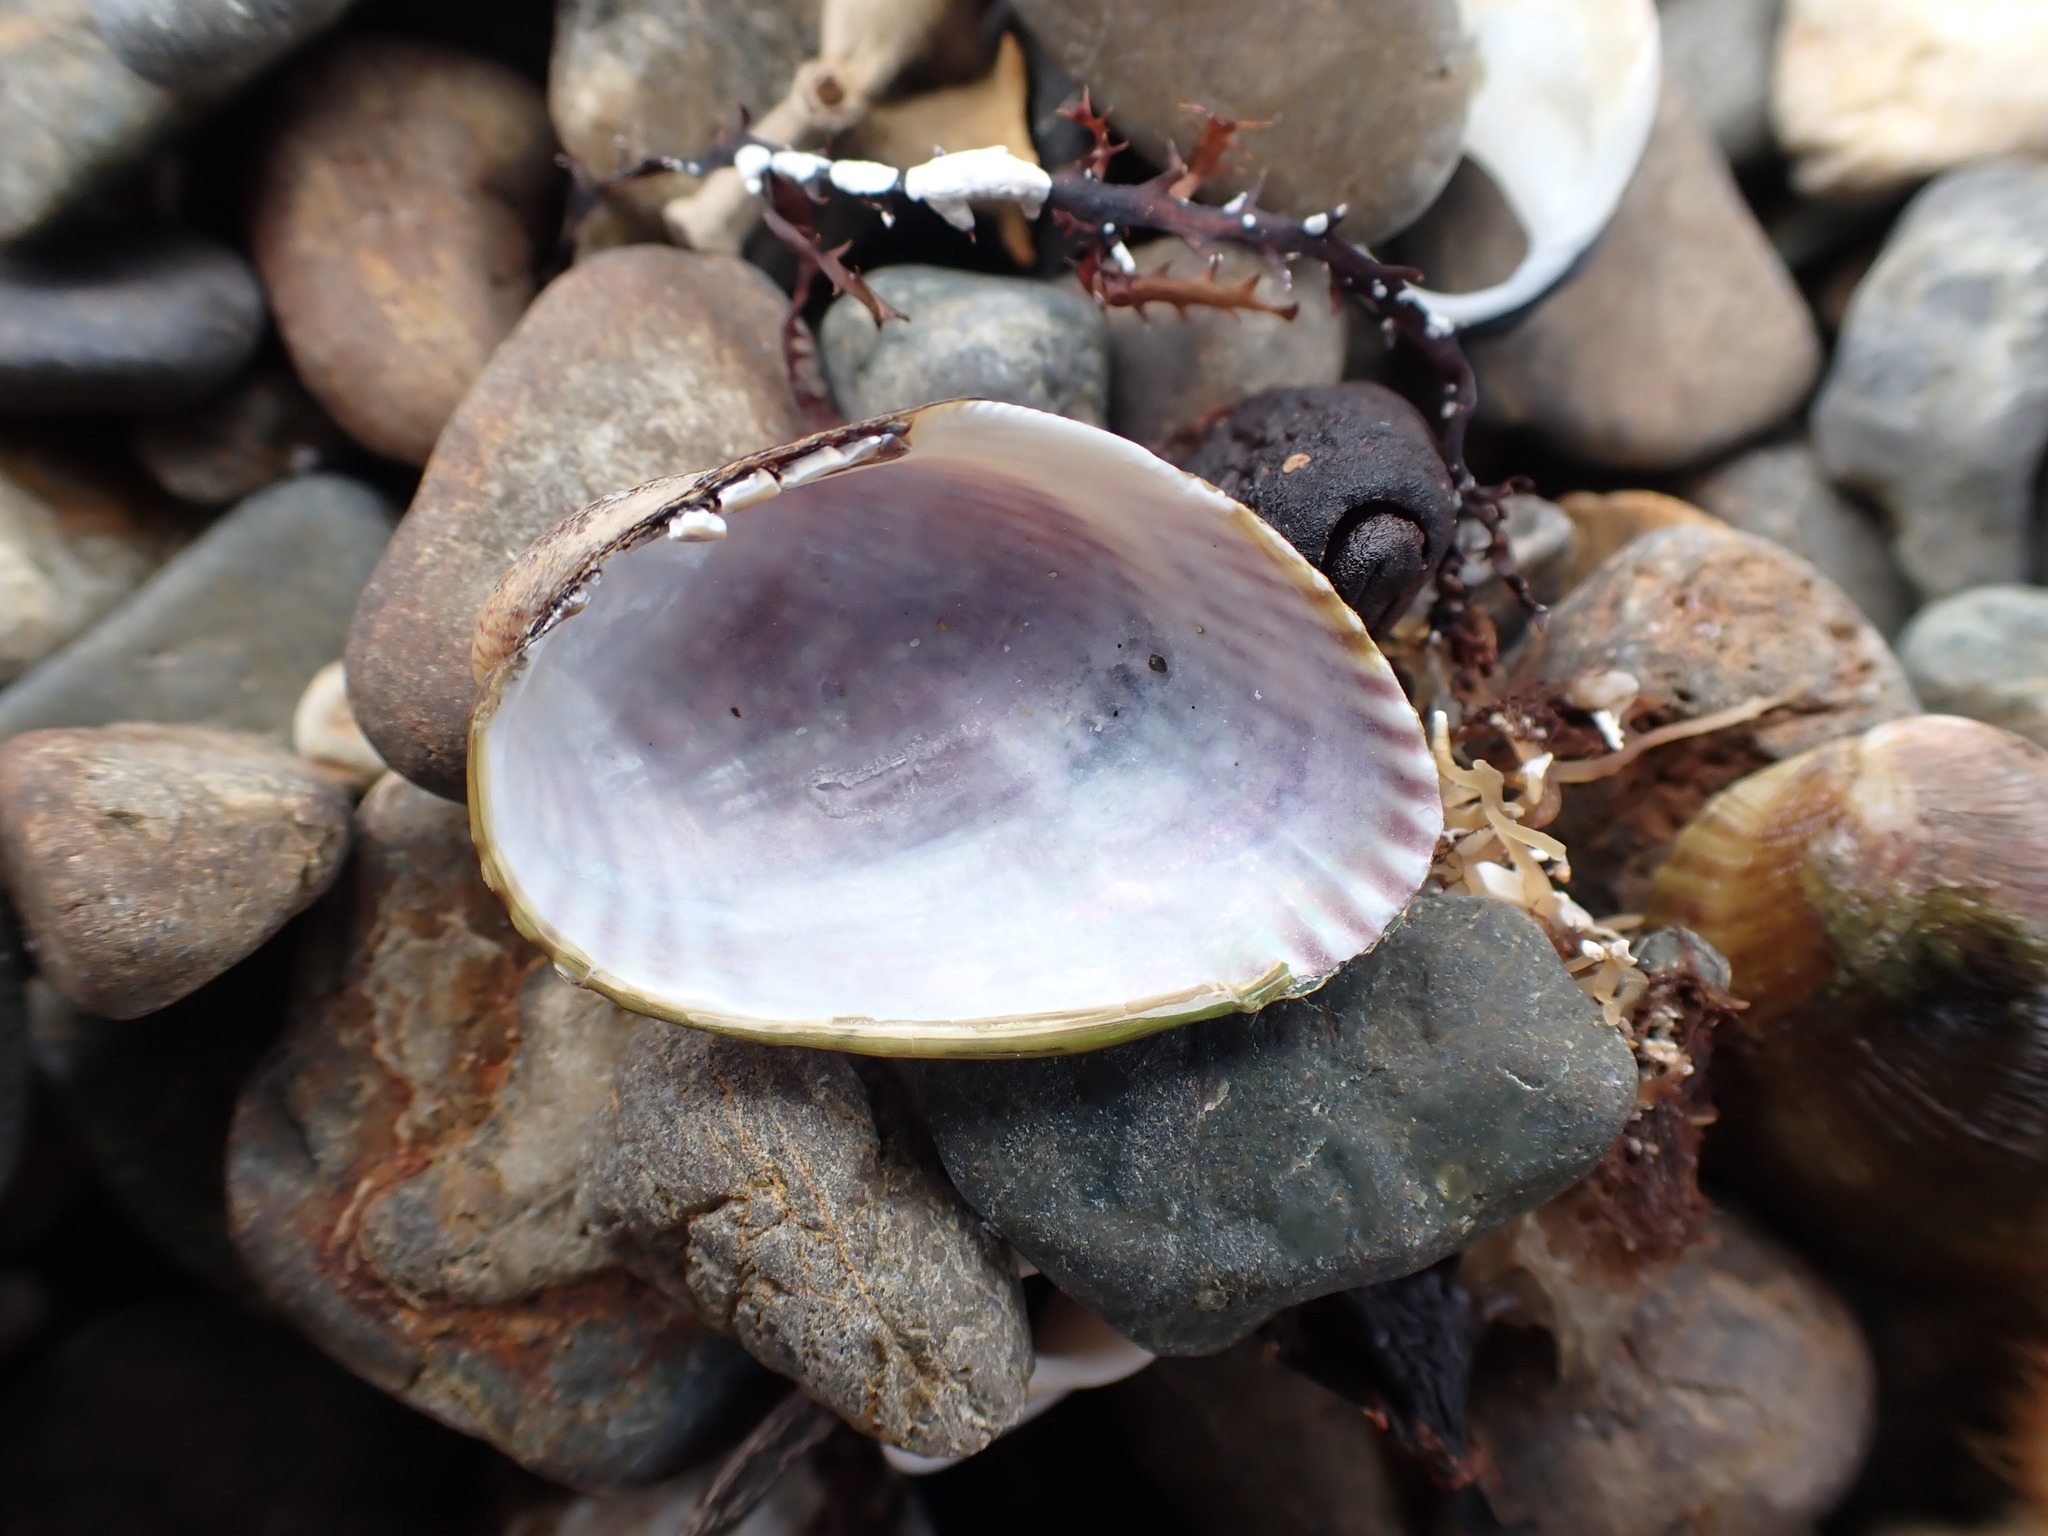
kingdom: Animalia
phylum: Mollusca
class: Bivalvia
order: Mytilida
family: Mytilidae
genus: Musculus
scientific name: Musculus impactus
